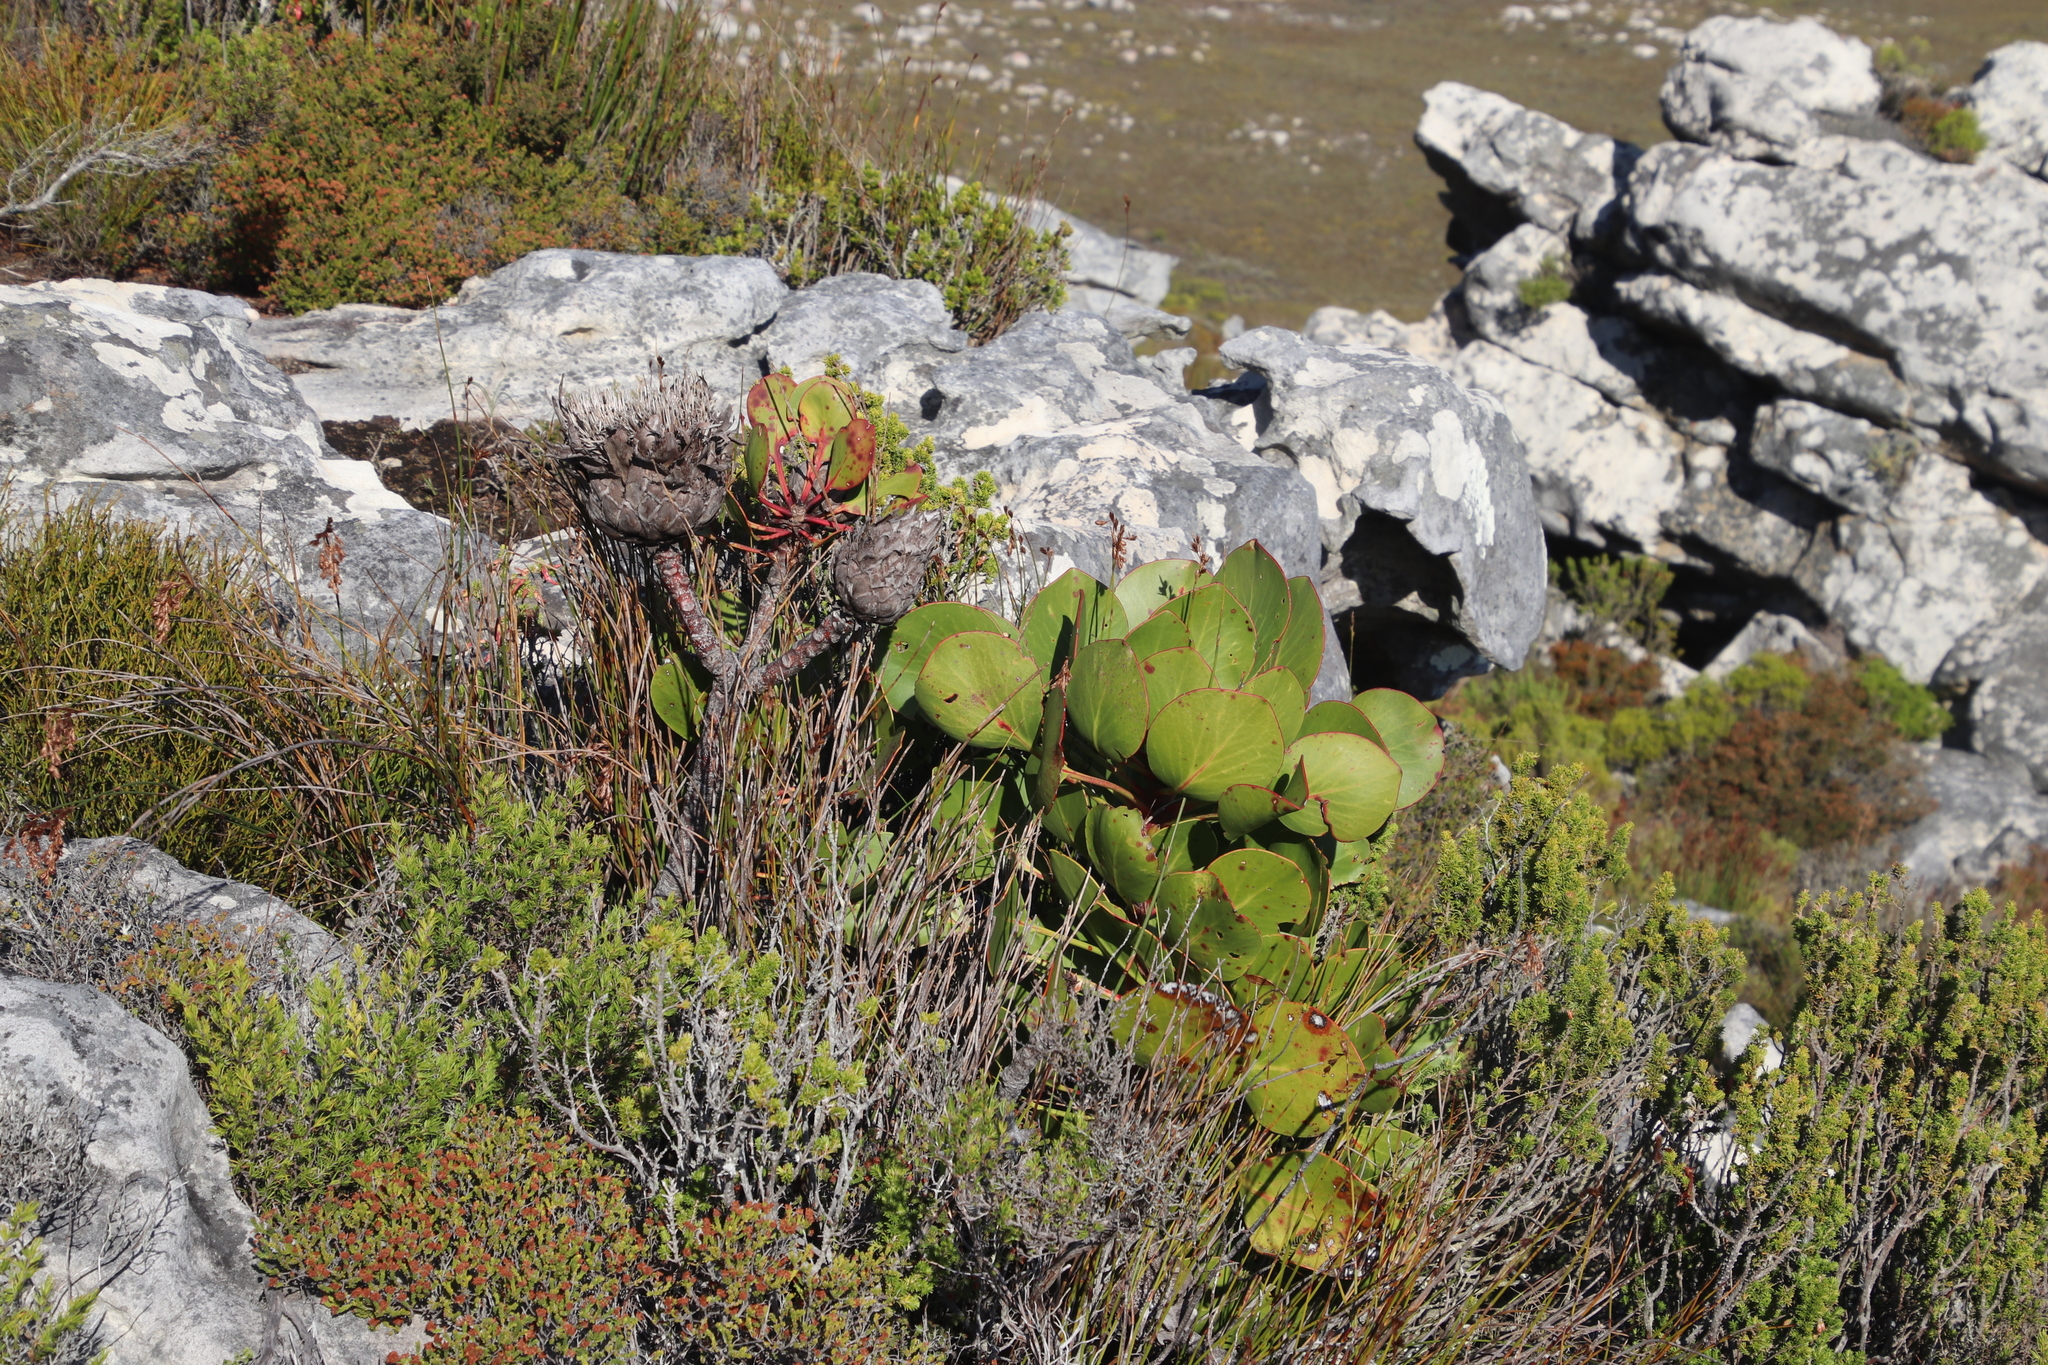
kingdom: Plantae
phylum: Tracheophyta
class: Magnoliopsida
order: Proteales
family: Proteaceae
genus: Protea
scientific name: Protea cynaroides
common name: King protea
